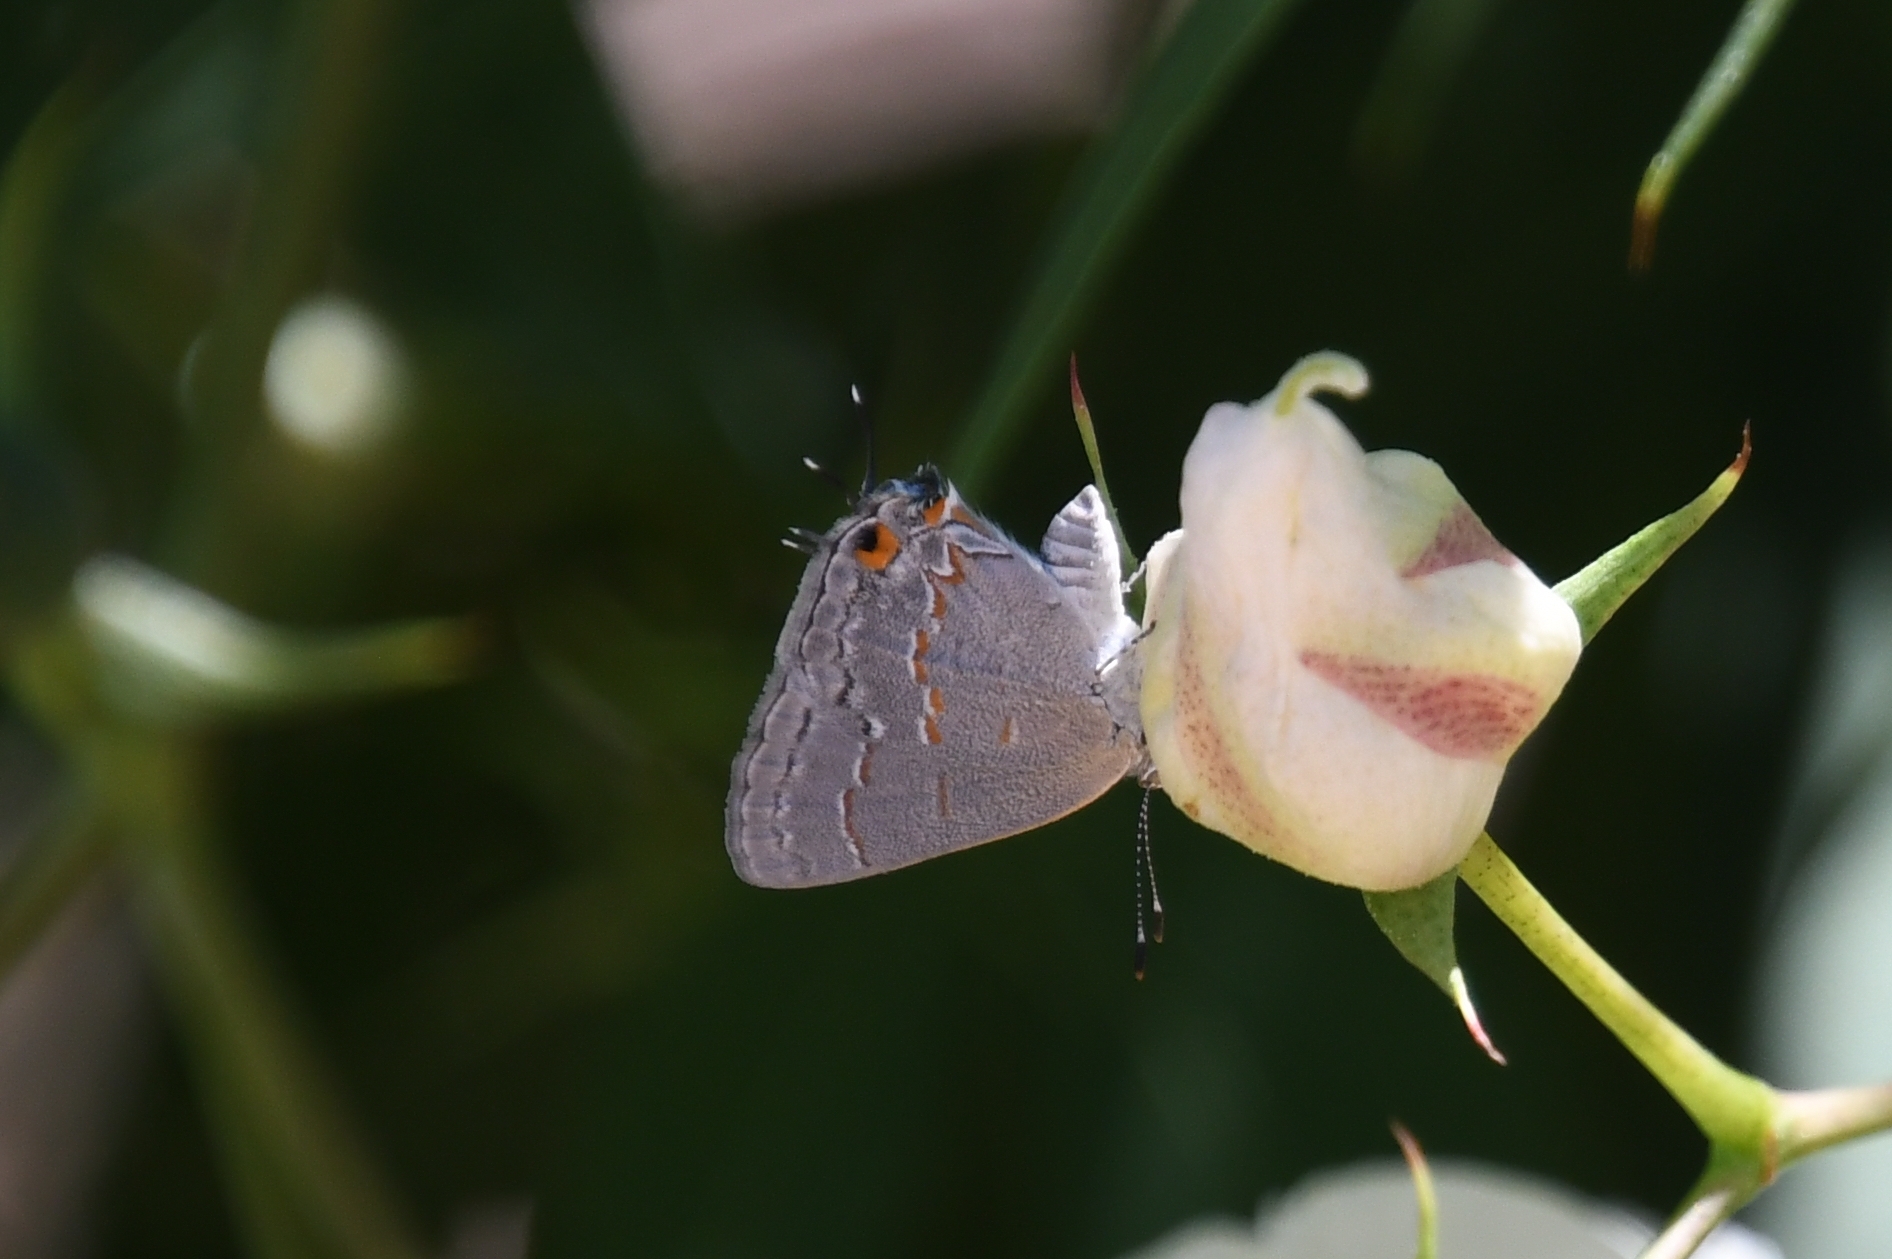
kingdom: Animalia
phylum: Arthropoda
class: Insecta
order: Lepidoptera
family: Lycaenidae
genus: Ministrymon
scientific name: Ministrymon leda
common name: Leda ministreak
